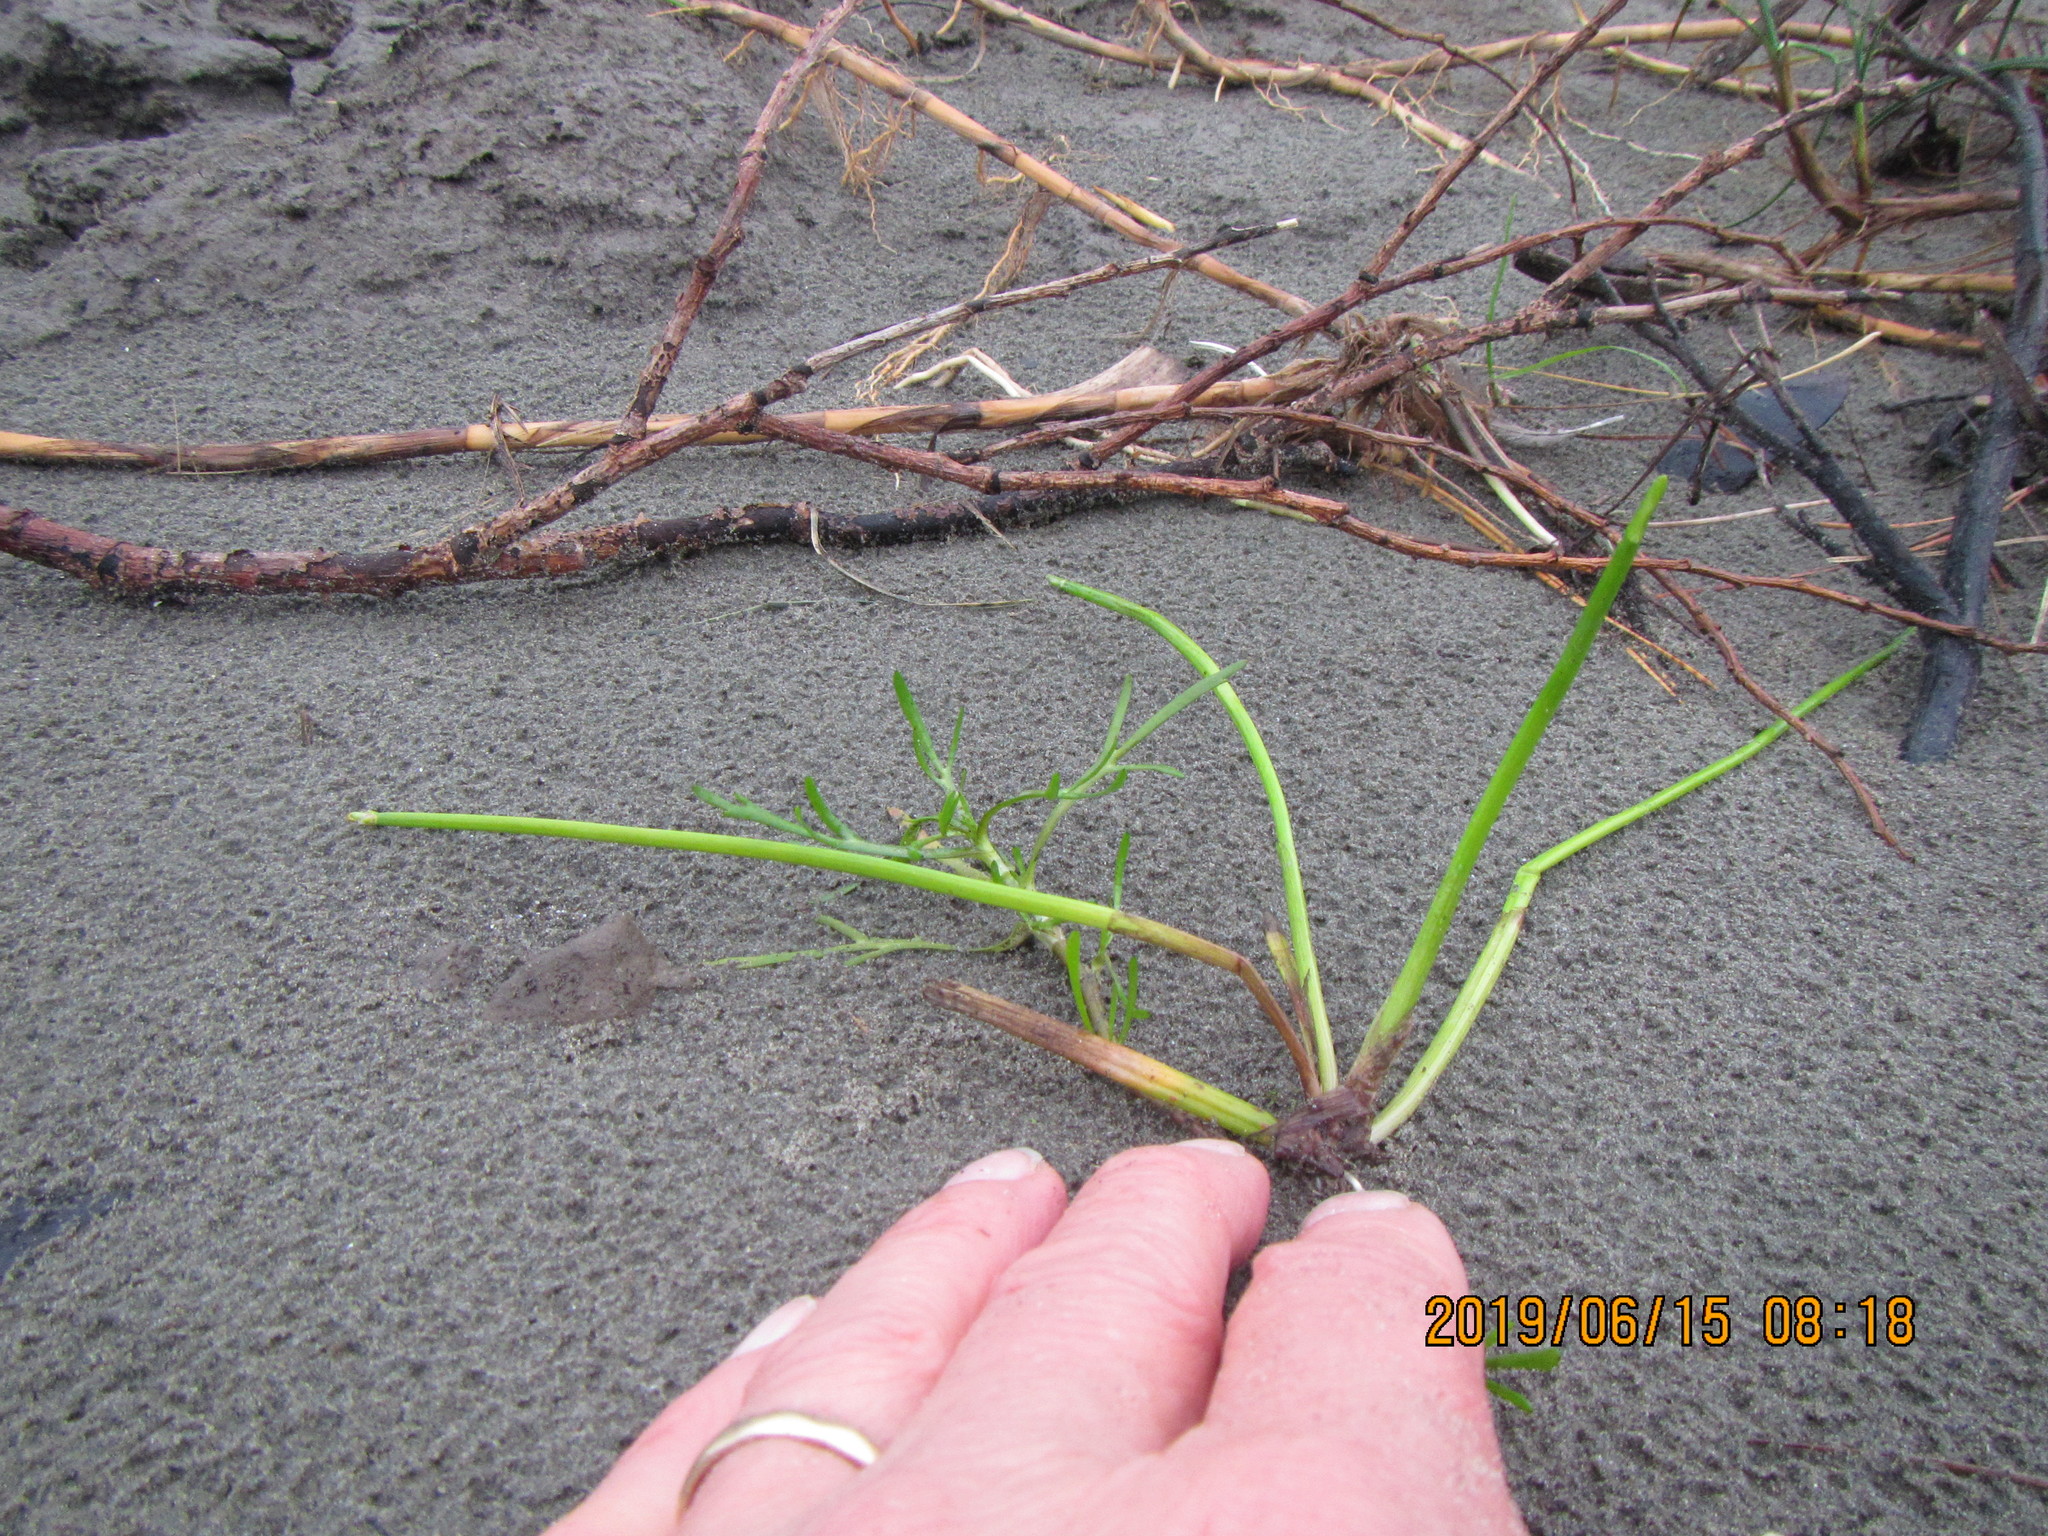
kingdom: Plantae
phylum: Tracheophyta
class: Liliopsida
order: Poales
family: Cyperaceae
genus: Isolepis
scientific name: Isolepis prolifera
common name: Proliferating bulrush
